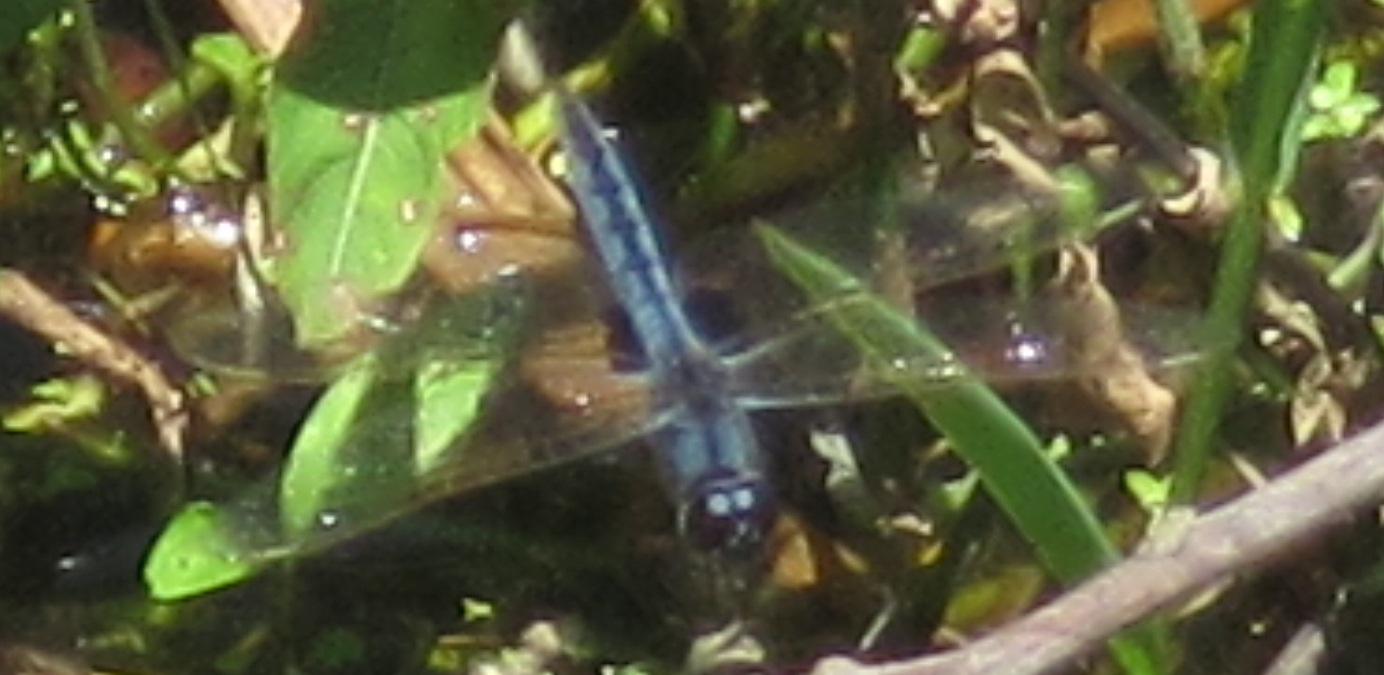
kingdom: Animalia
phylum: Arthropoda
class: Insecta
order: Odonata
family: Libellulidae
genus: Urothemis
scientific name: Urothemis edwardsii
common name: Blue basker
